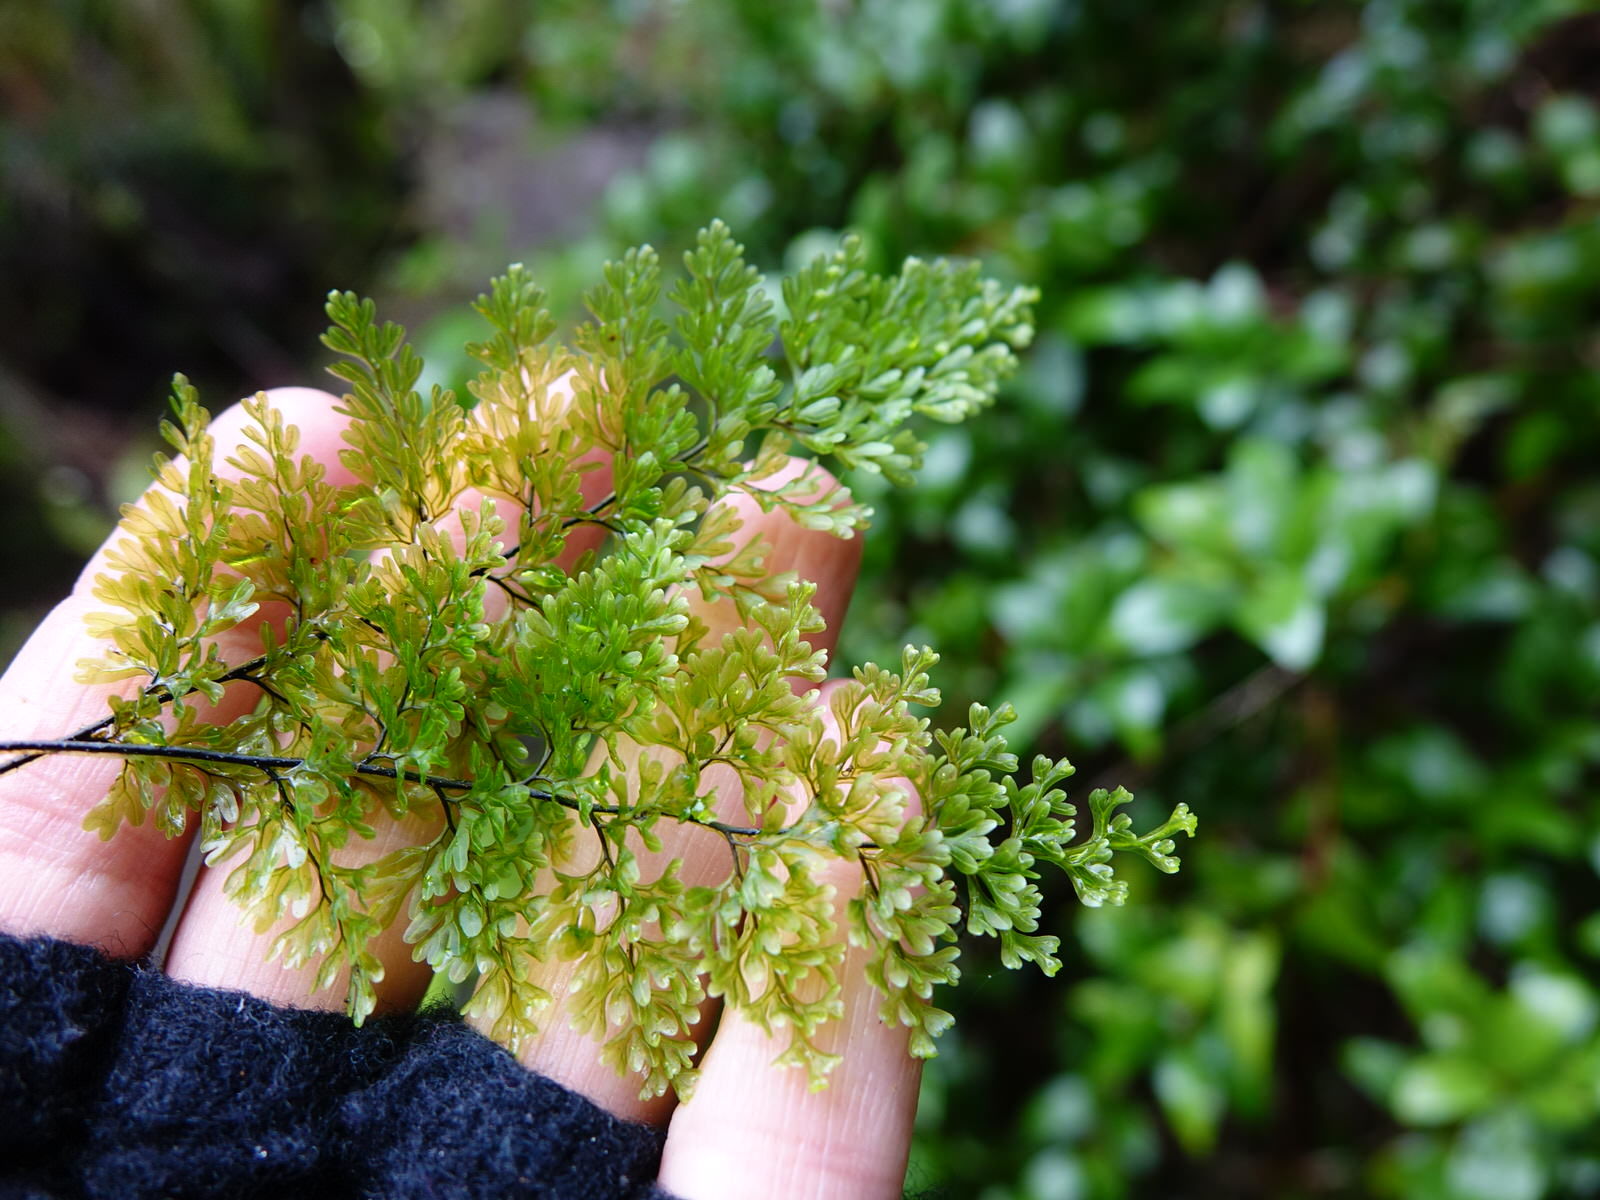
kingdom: Plantae
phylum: Tracheophyta
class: Polypodiopsida
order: Hymenophyllales
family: Hymenophyllaceae
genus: Hymenophyllum
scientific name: Hymenophyllum sanguinolentum
